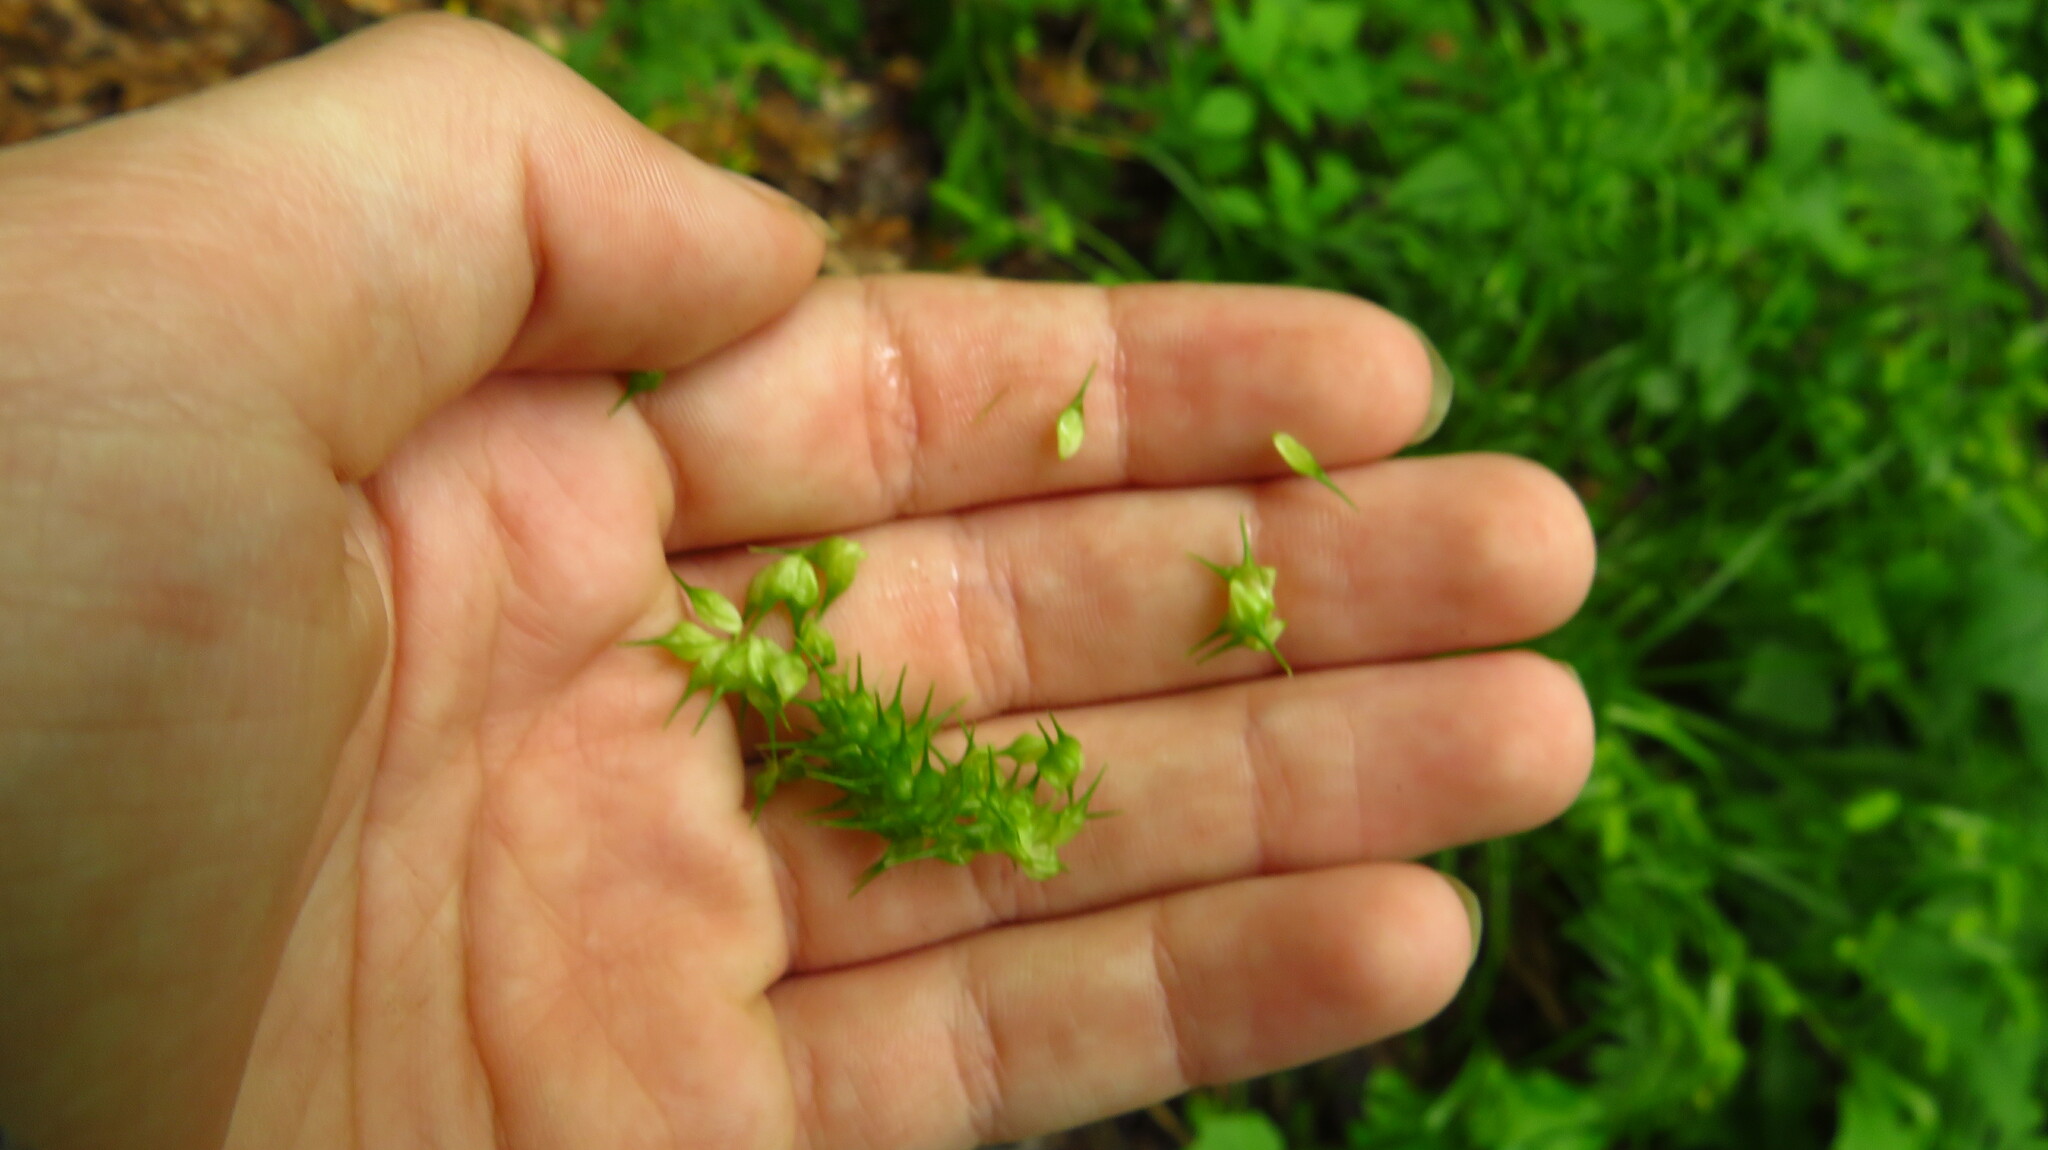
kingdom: Plantae
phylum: Tracheophyta
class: Liliopsida
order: Poales
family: Cyperaceae
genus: Carex
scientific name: Carex lurida
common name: Sallow sedge
